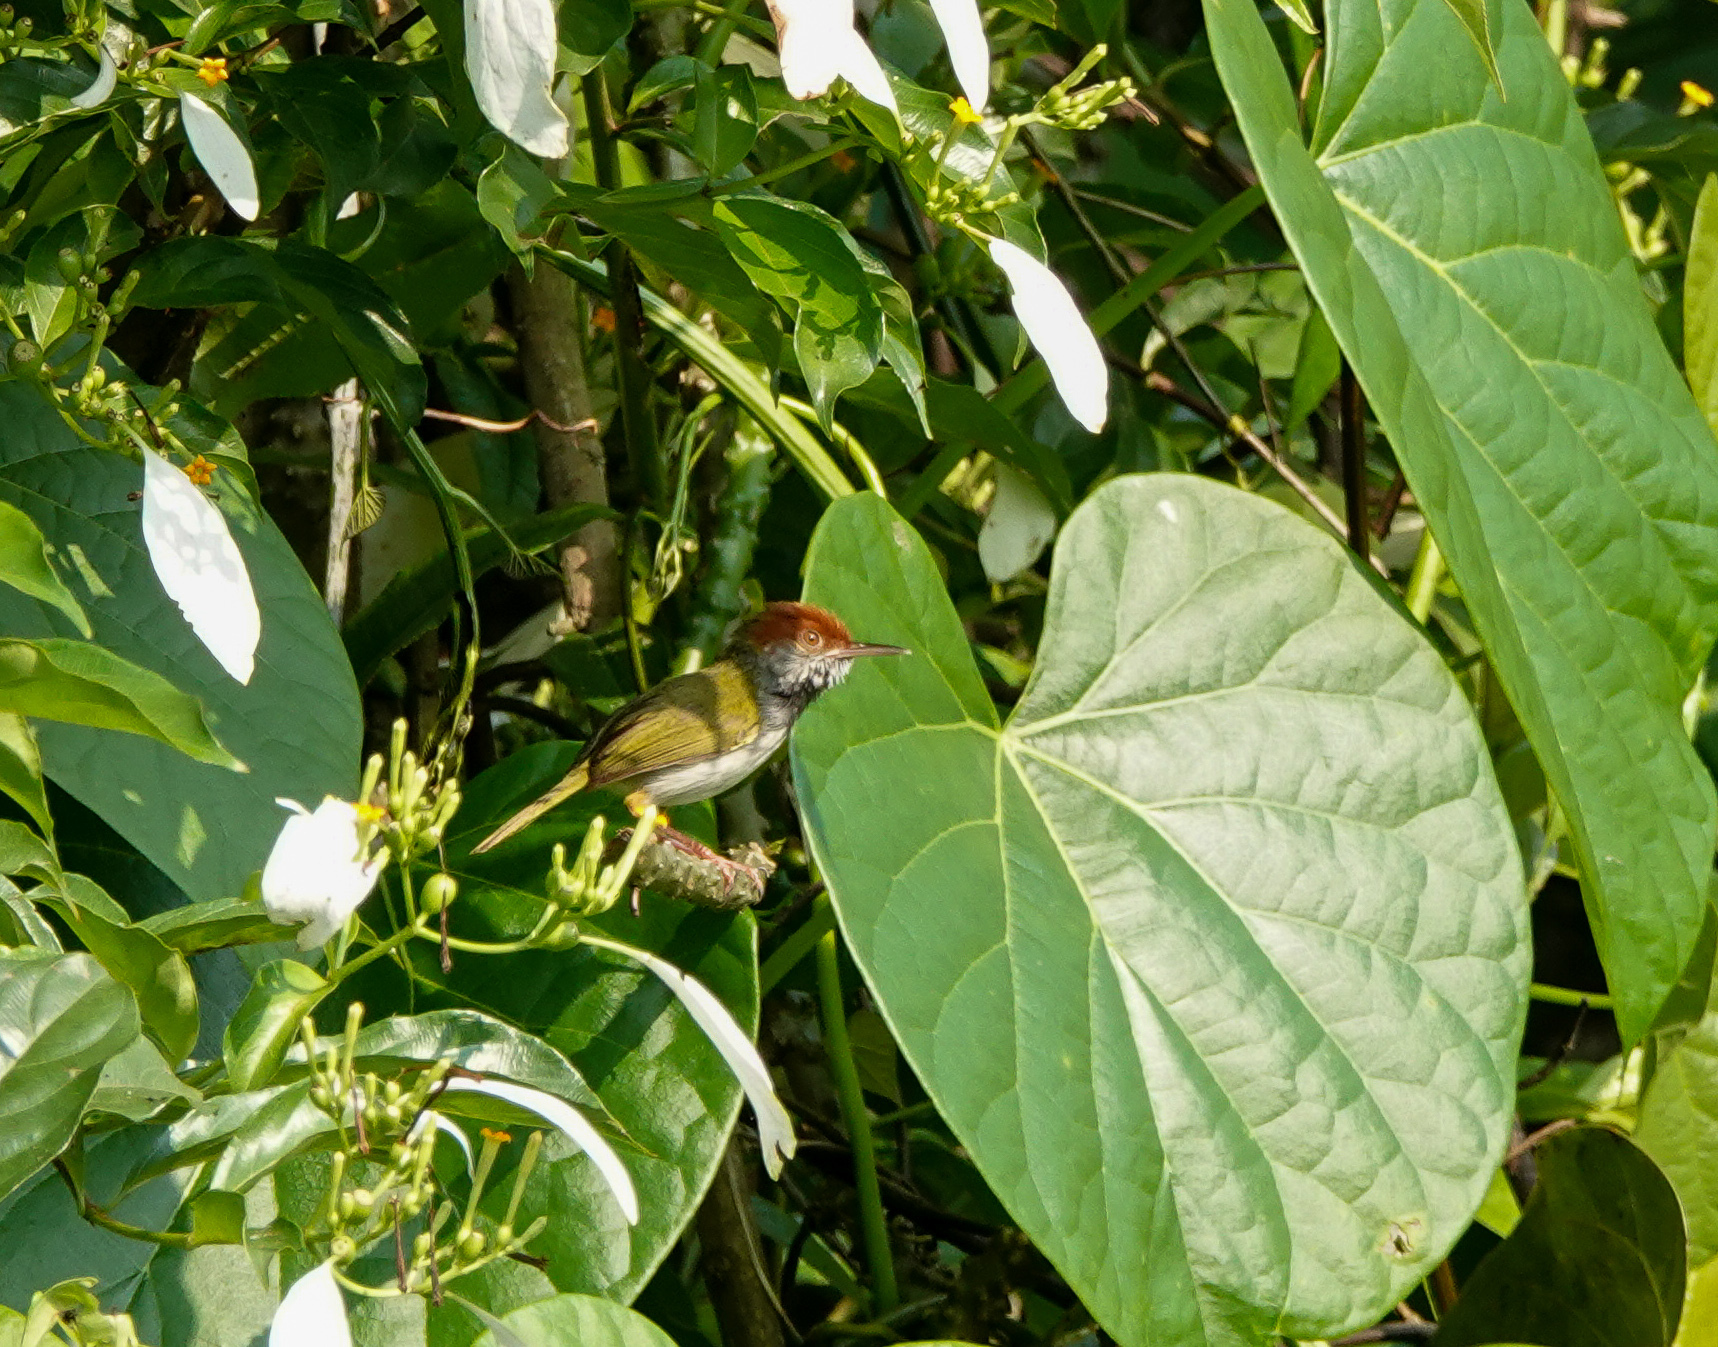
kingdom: Animalia
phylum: Chordata
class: Aves
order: Passeriformes
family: Cisticolidae
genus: Orthotomus
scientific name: Orthotomus atrogularis
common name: Dark-necked tailorbird
